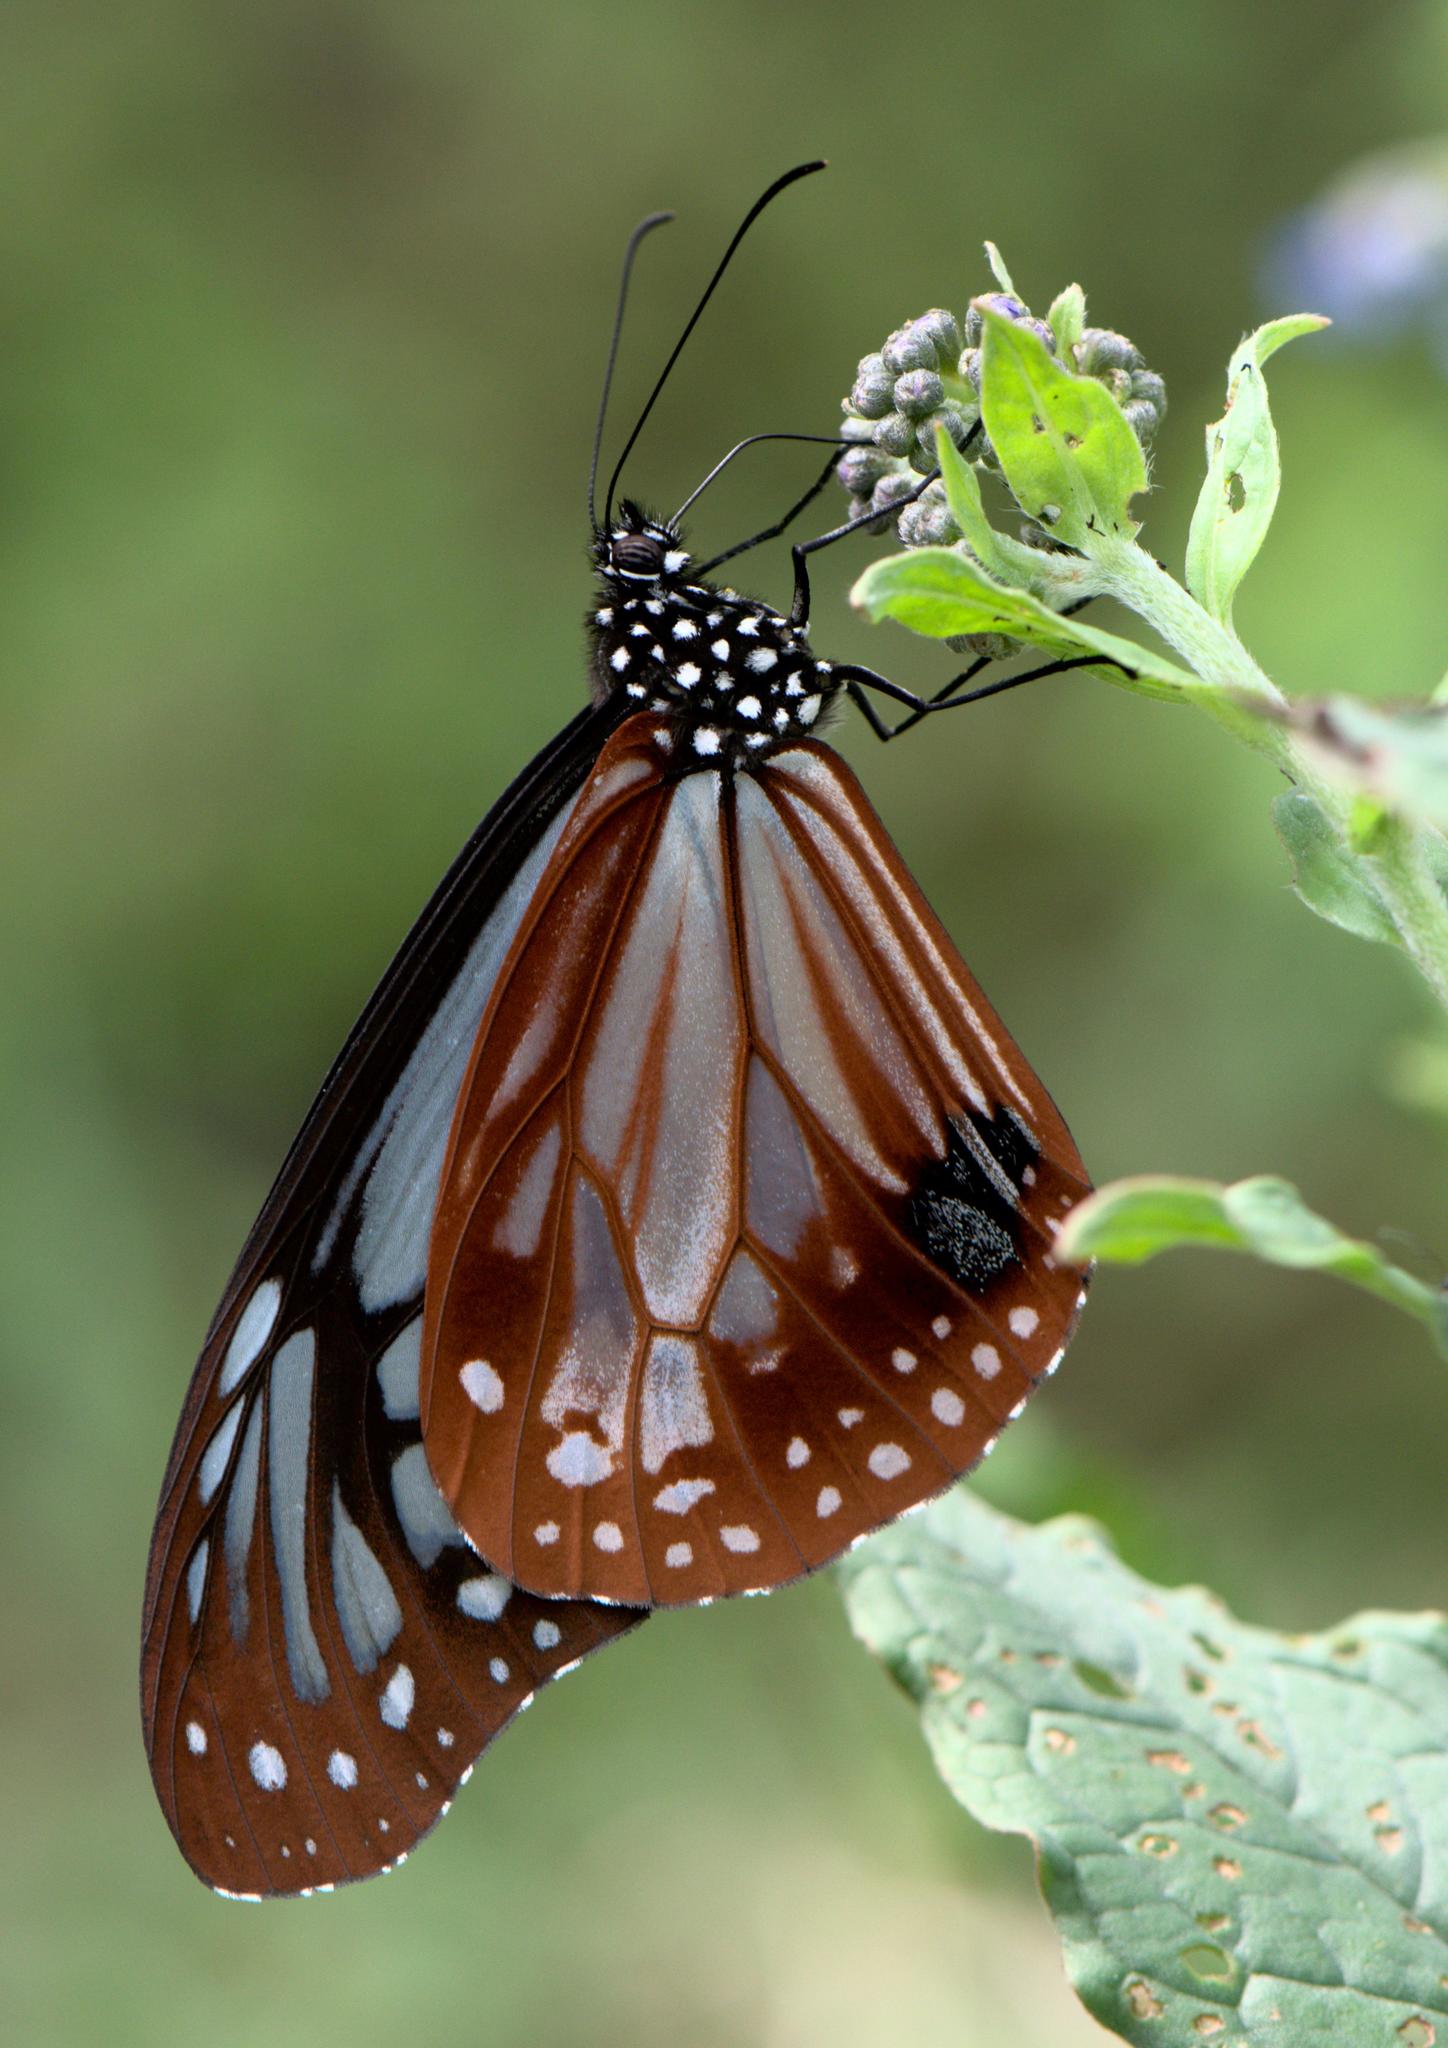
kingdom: Animalia
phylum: Arthropoda
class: Insecta
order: Lepidoptera
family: Nymphalidae
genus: Parantica
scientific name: Parantica sita
